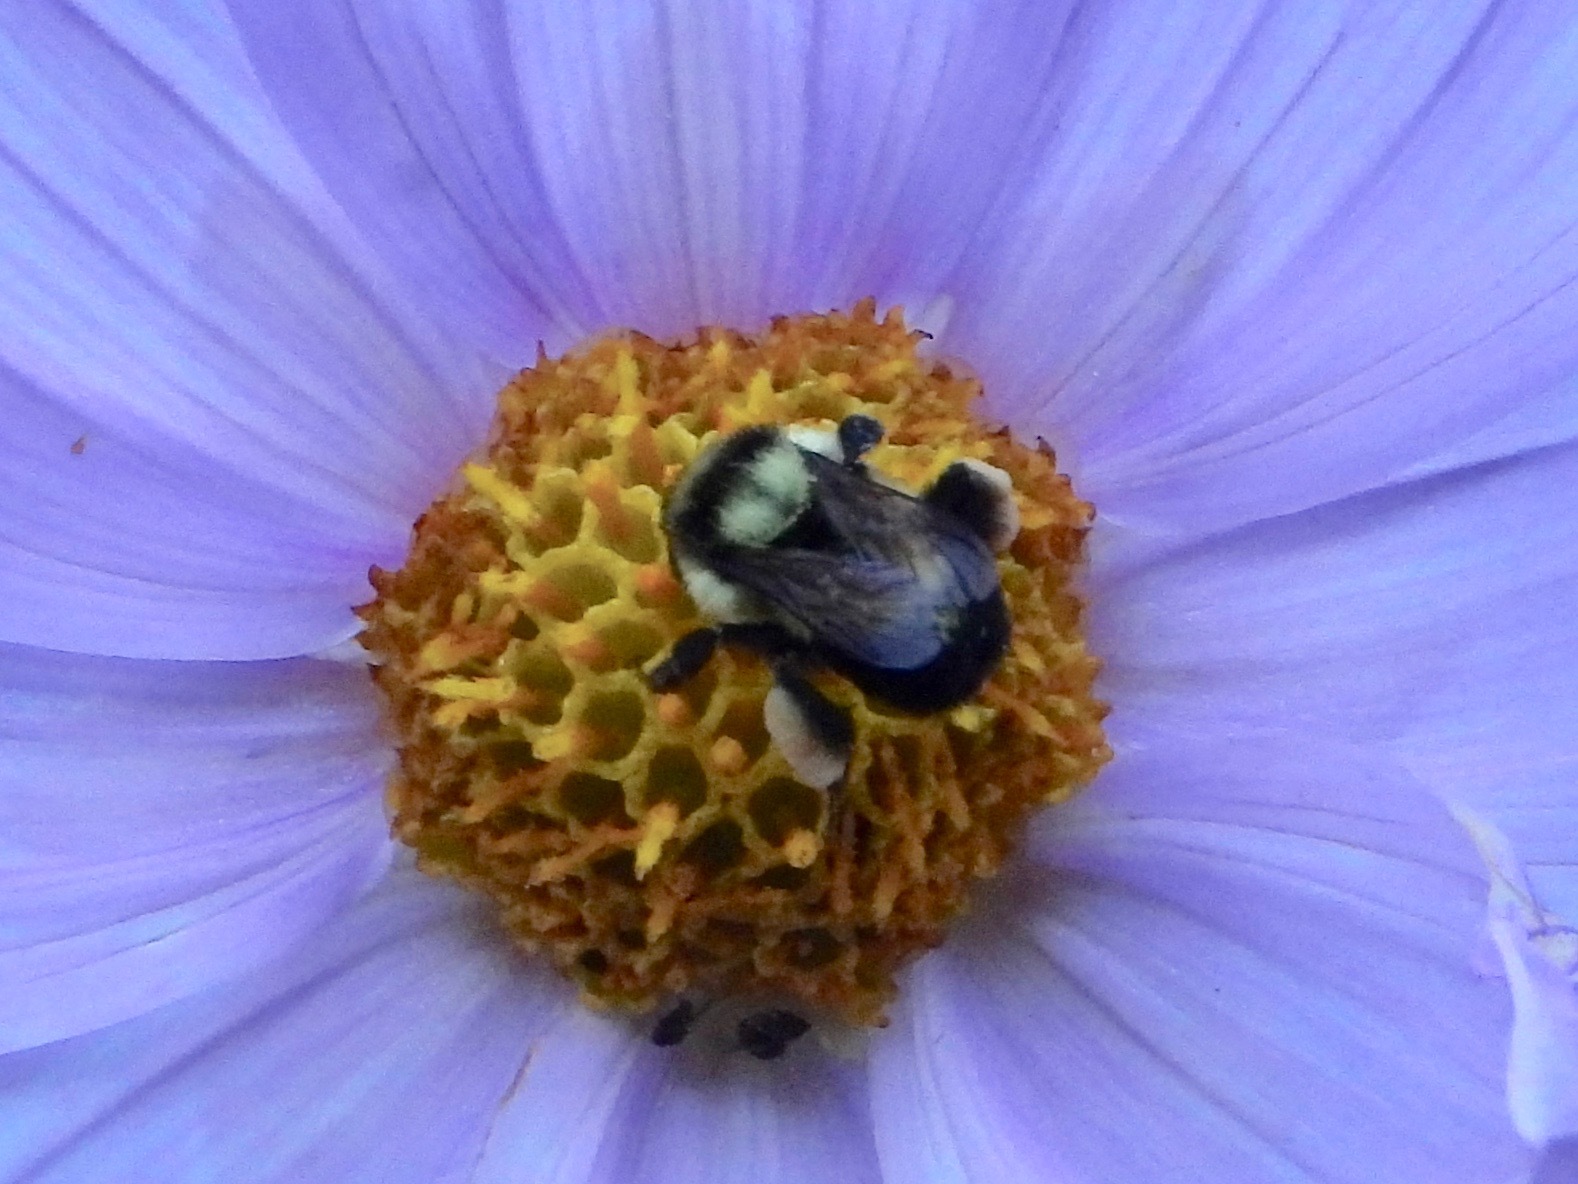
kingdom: Animalia
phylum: Arthropoda
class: Insecta
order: Hymenoptera
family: Apidae
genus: Bombus
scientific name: Bombus wilmattae
